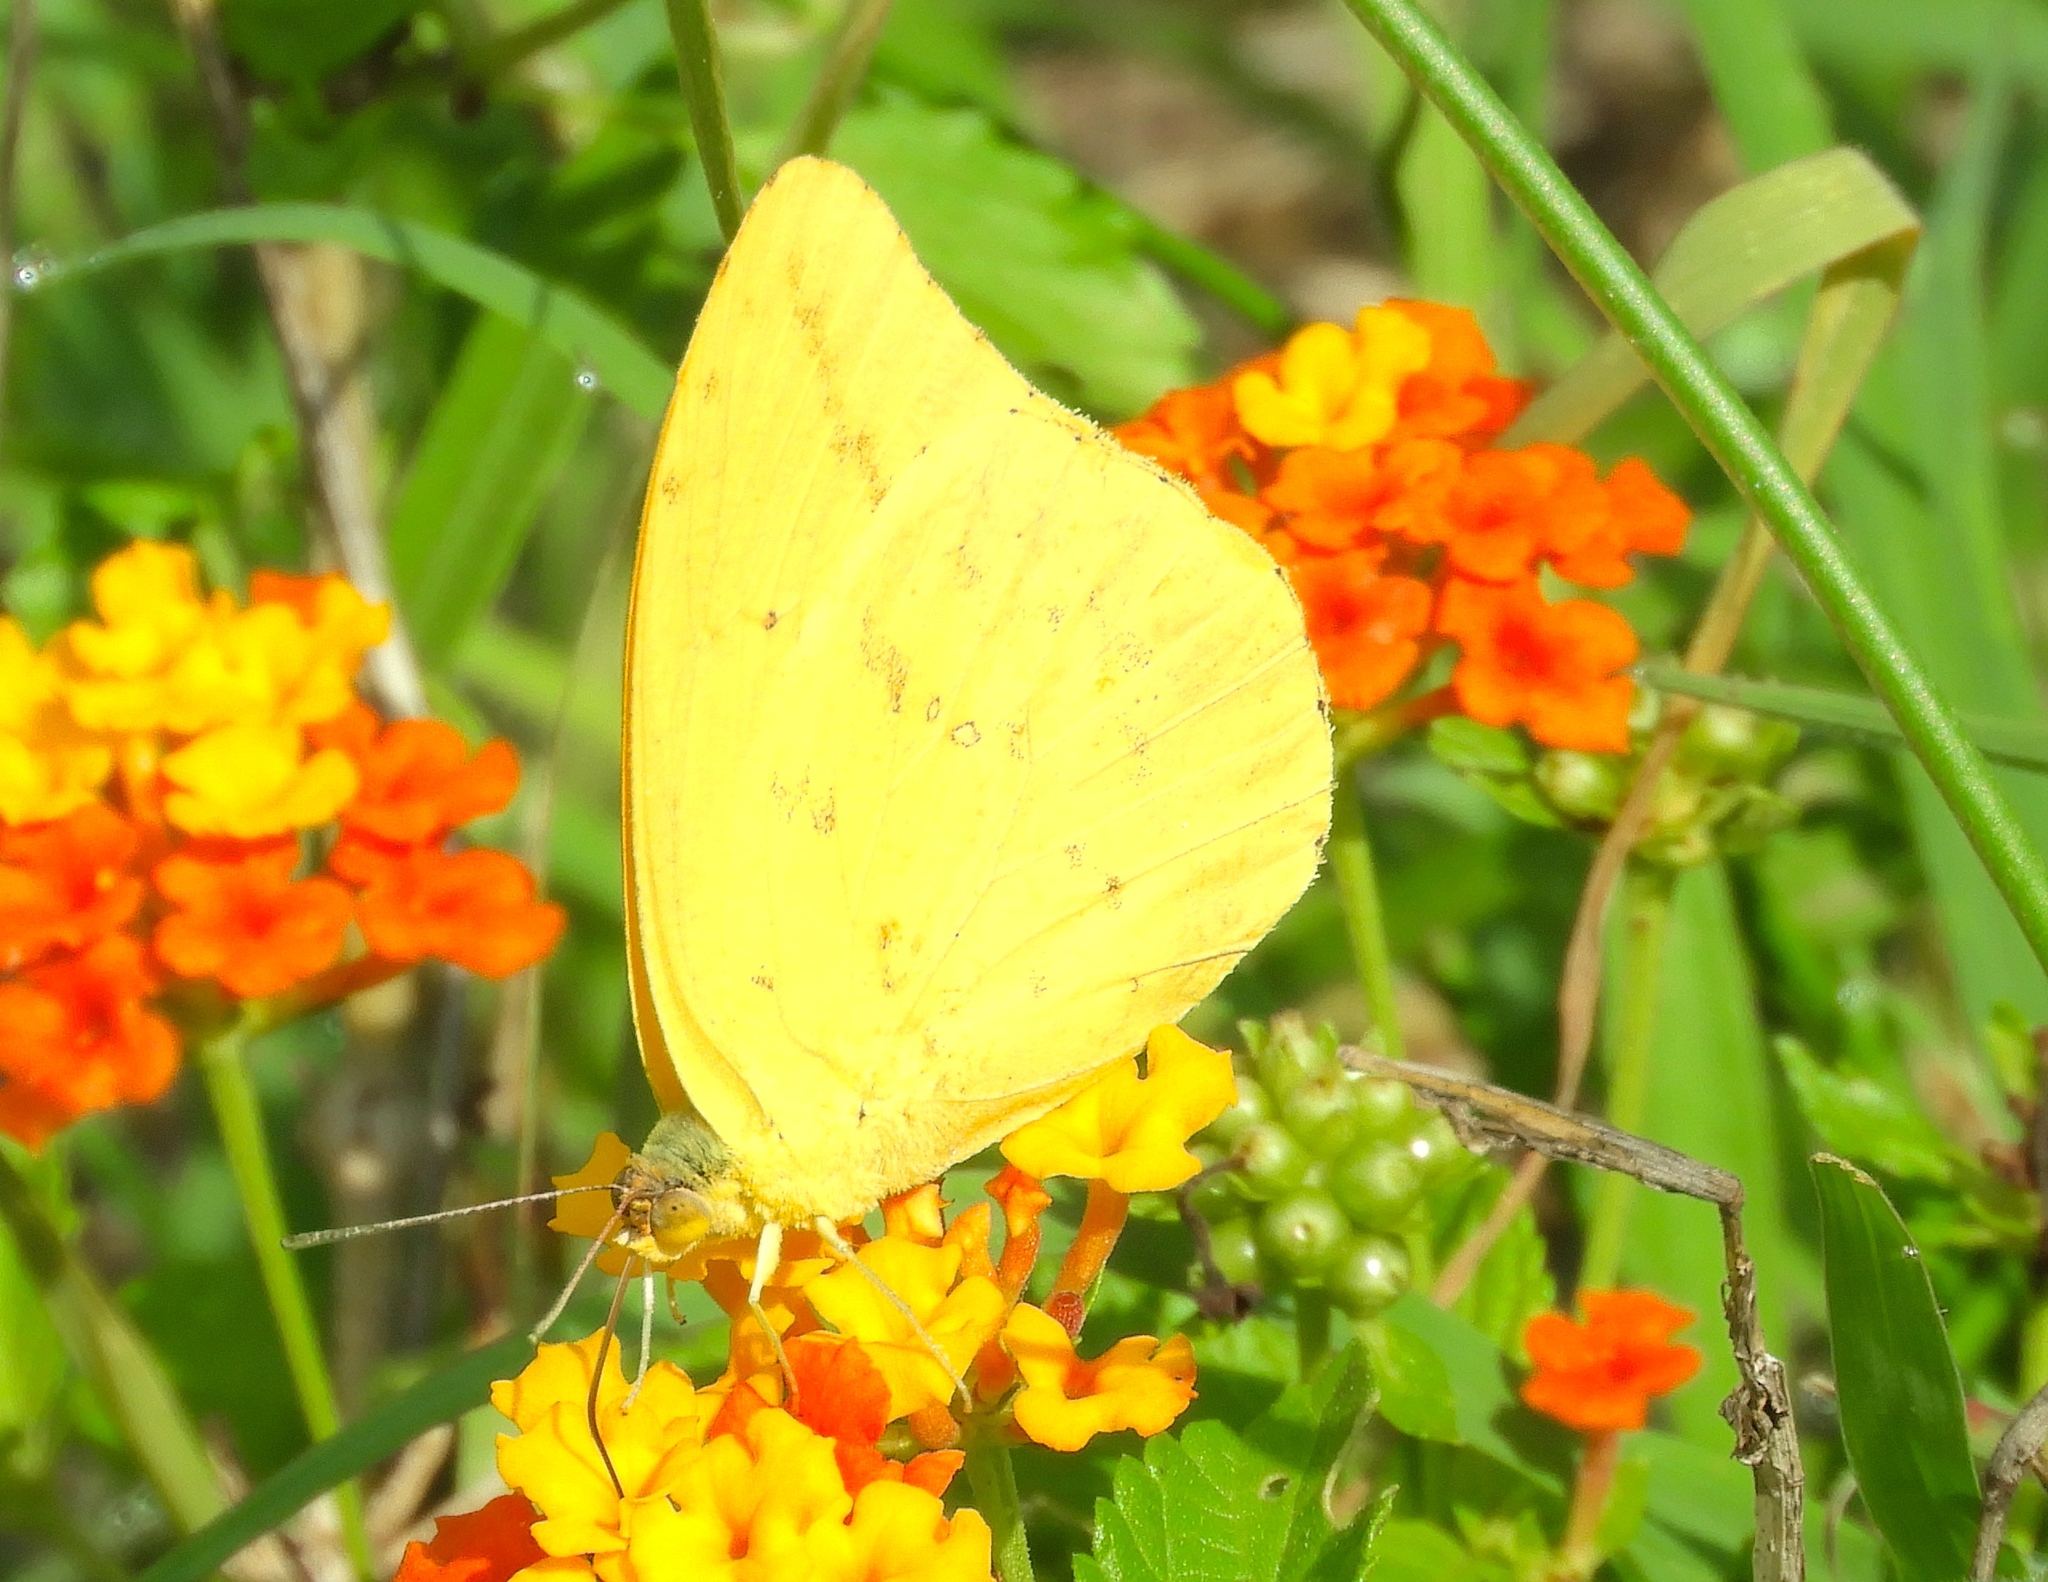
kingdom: Animalia
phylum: Arthropoda
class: Insecta
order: Lepidoptera
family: Pieridae
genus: Phoebis
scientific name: Phoebis agarithe
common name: Large orange sulphur
